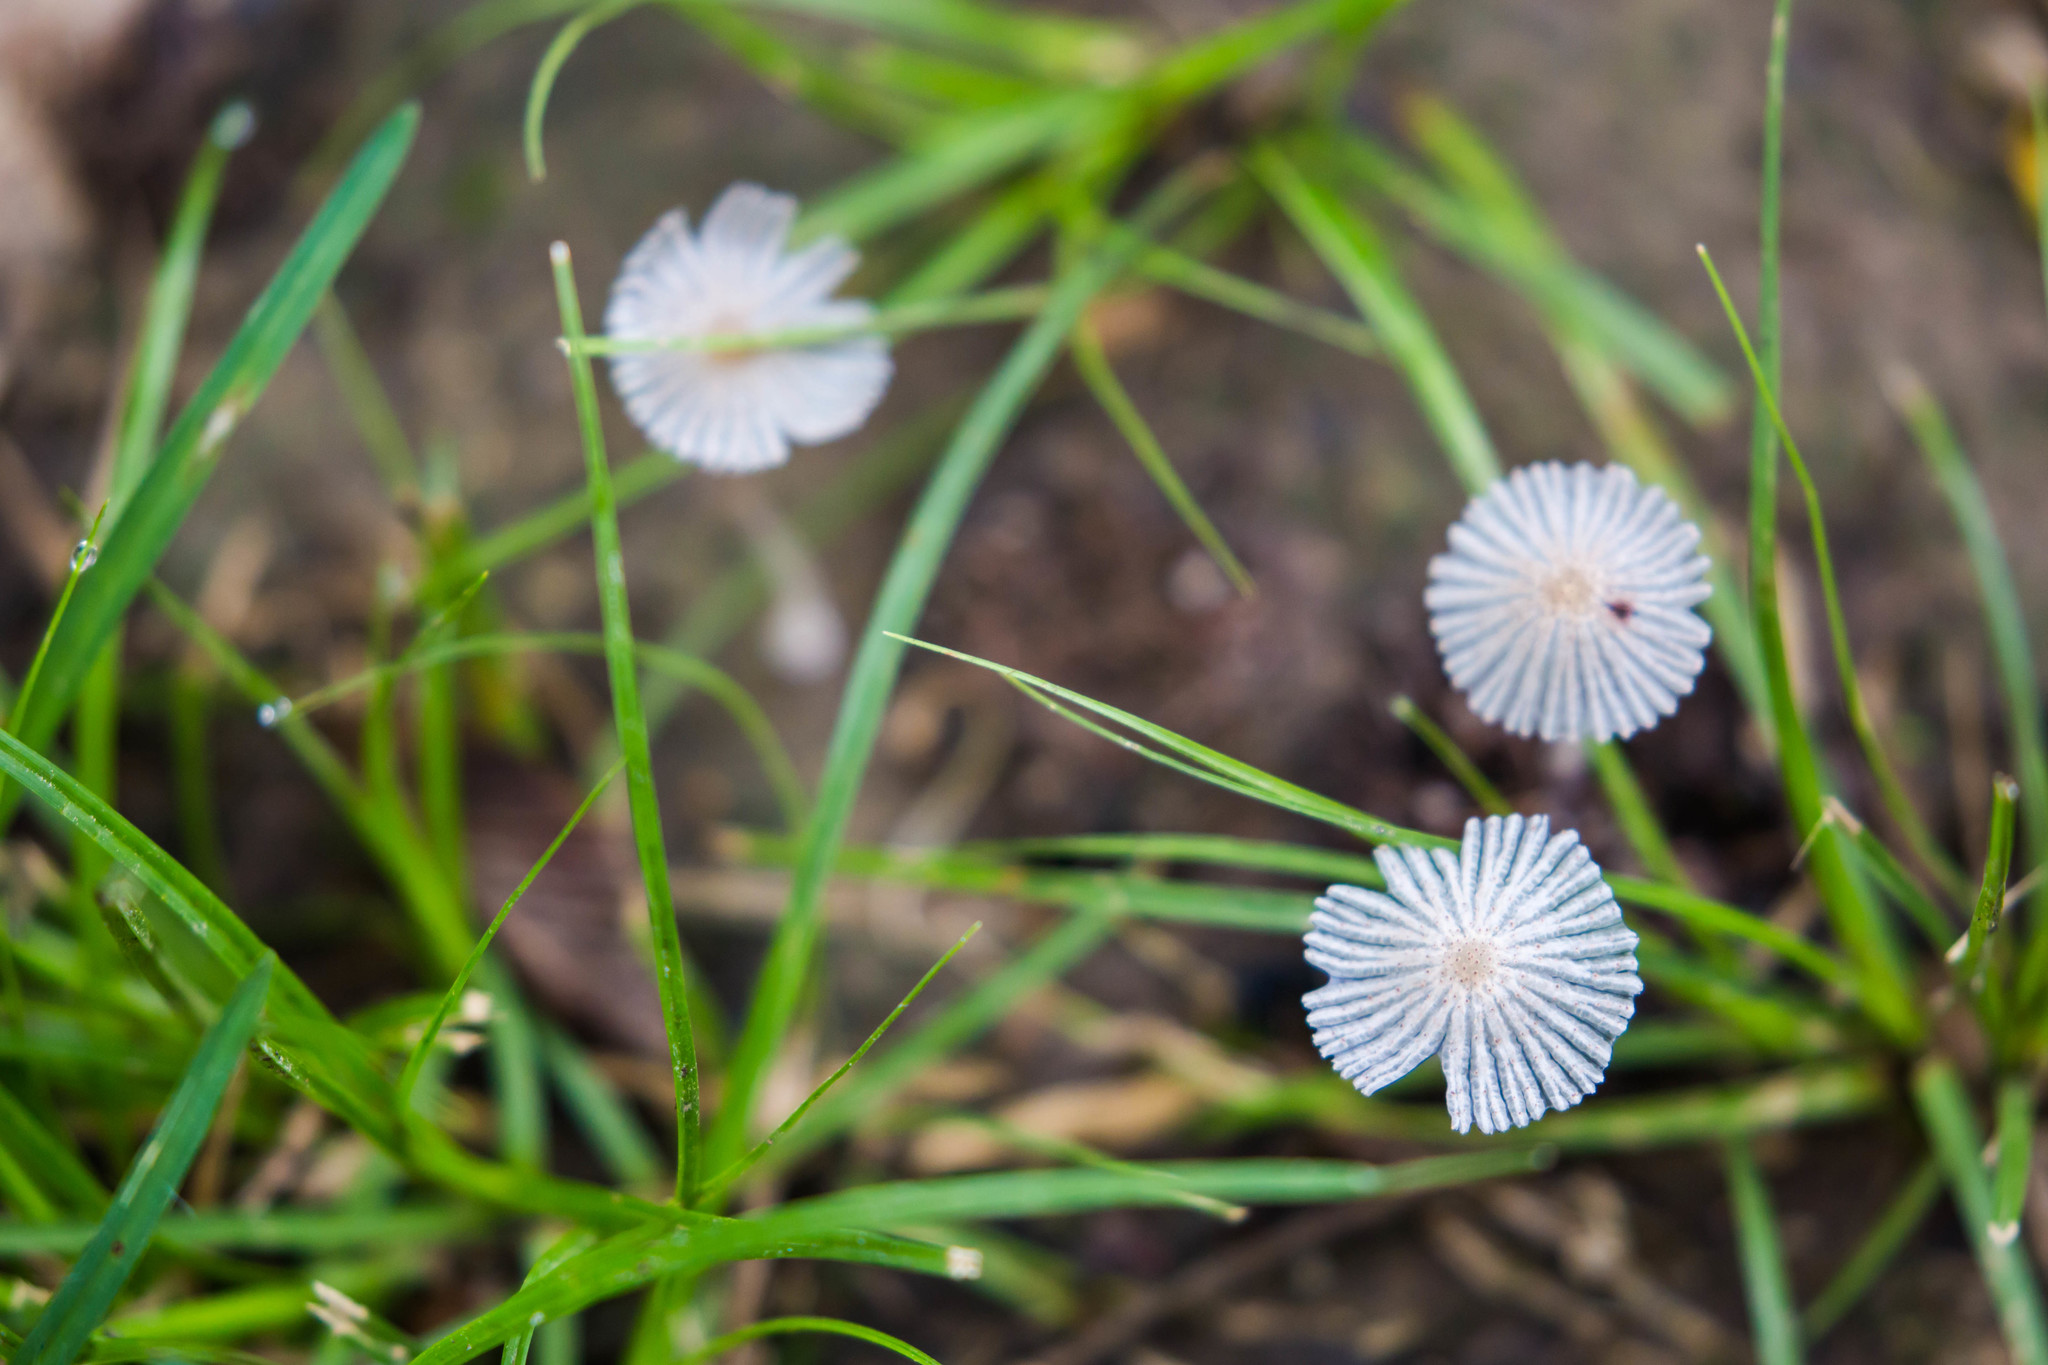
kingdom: Fungi
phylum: Basidiomycota
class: Agaricomycetes
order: Agaricales
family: Psathyrellaceae
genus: Parasola
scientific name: Parasola plicatilis
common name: Pleated inkcap
